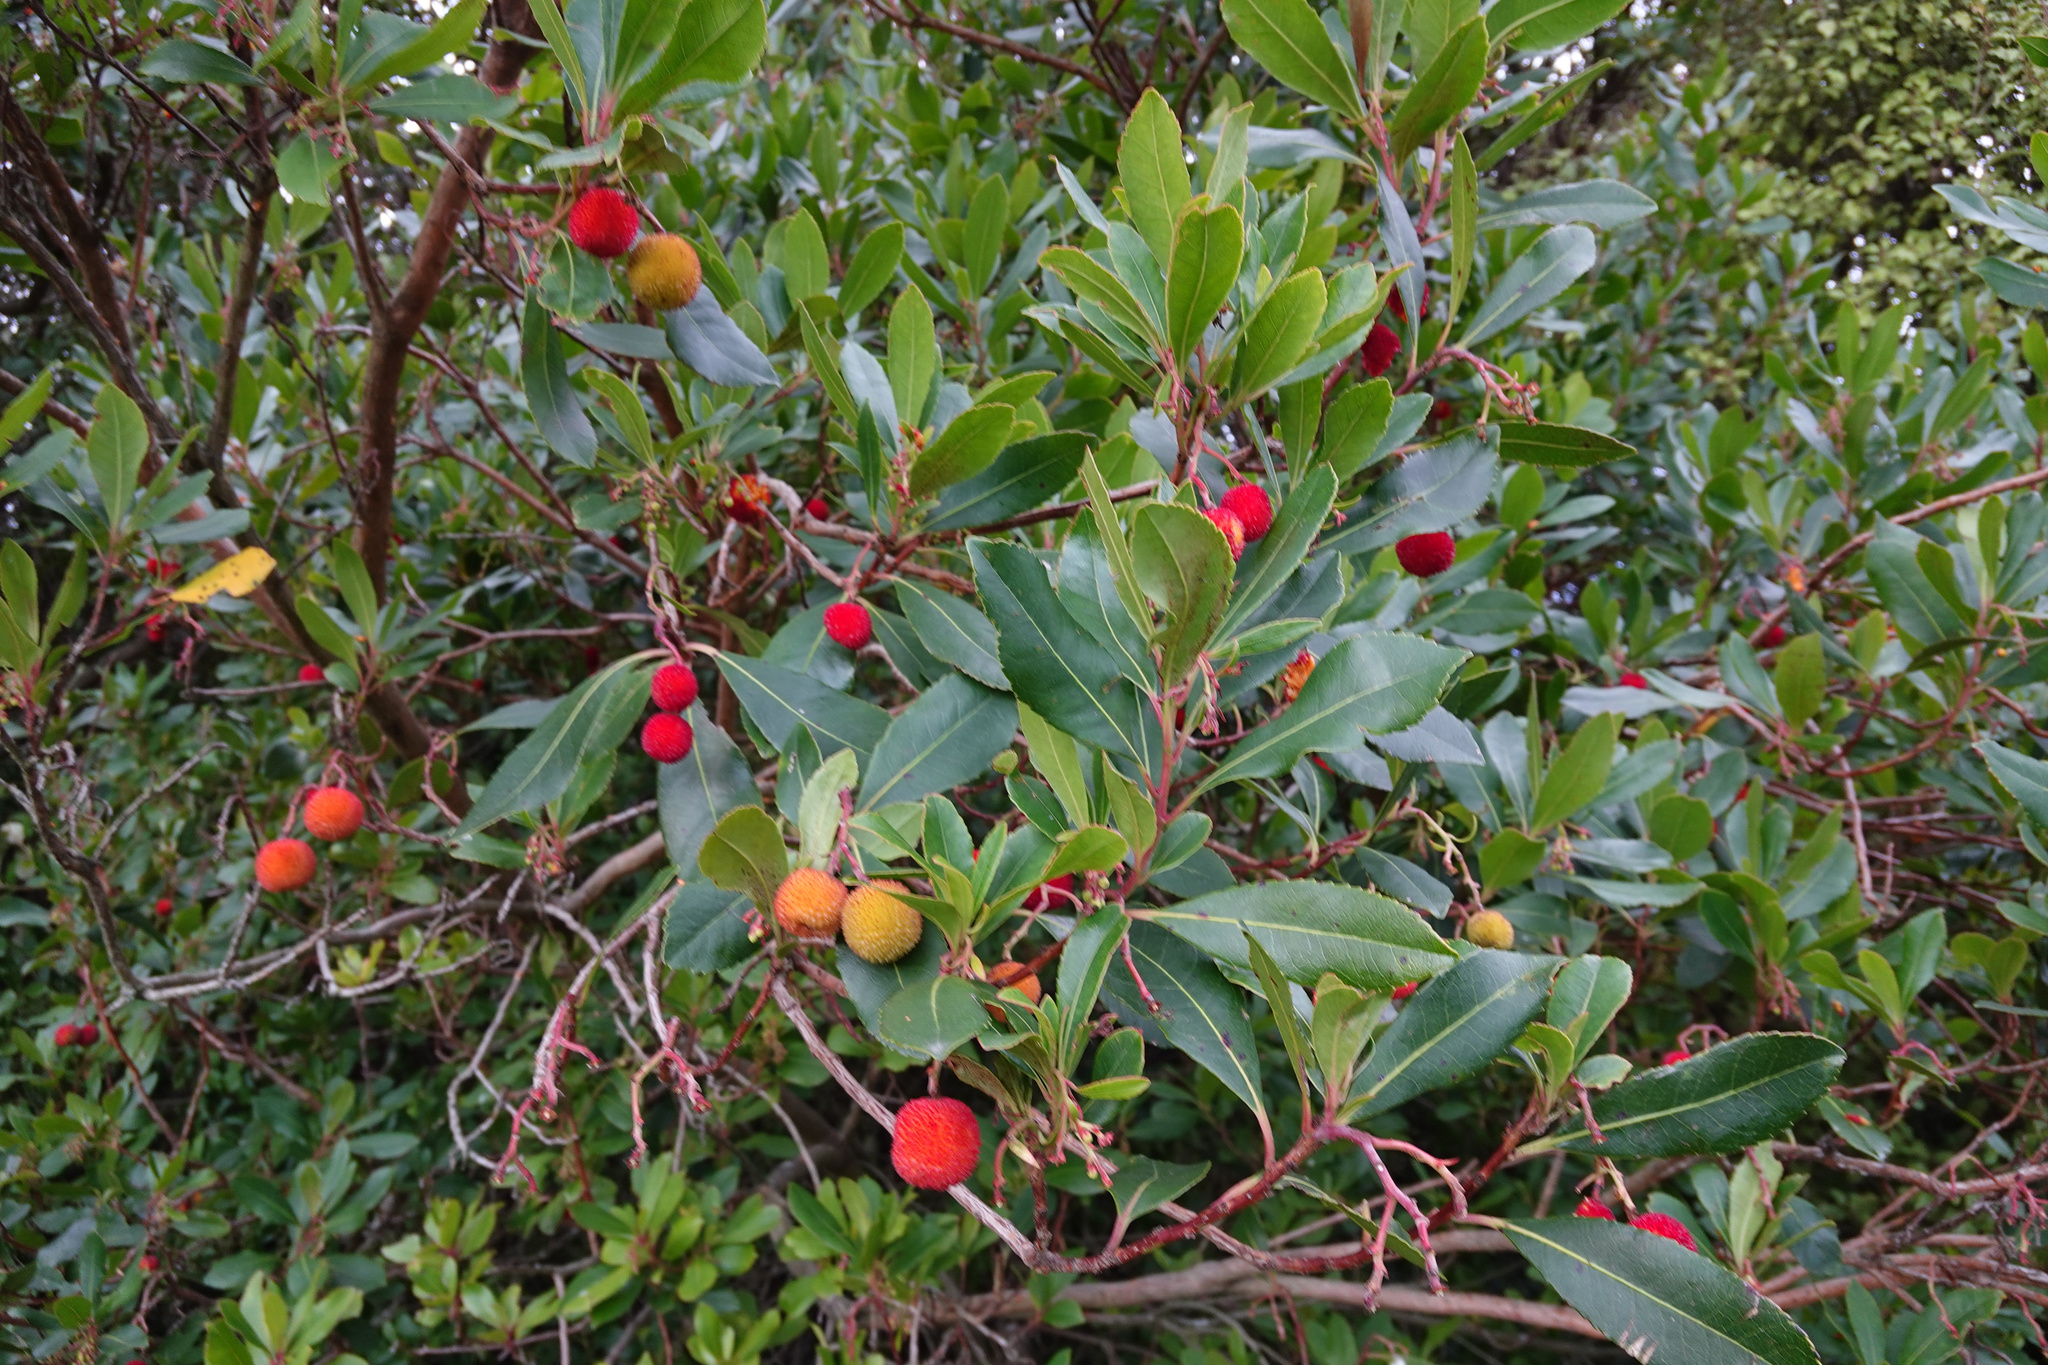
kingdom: Plantae
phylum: Tracheophyta
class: Magnoliopsida
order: Ericales
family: Ericaceae
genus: Arbutus
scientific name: Arbutus unedo
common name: Strawberry-tree
